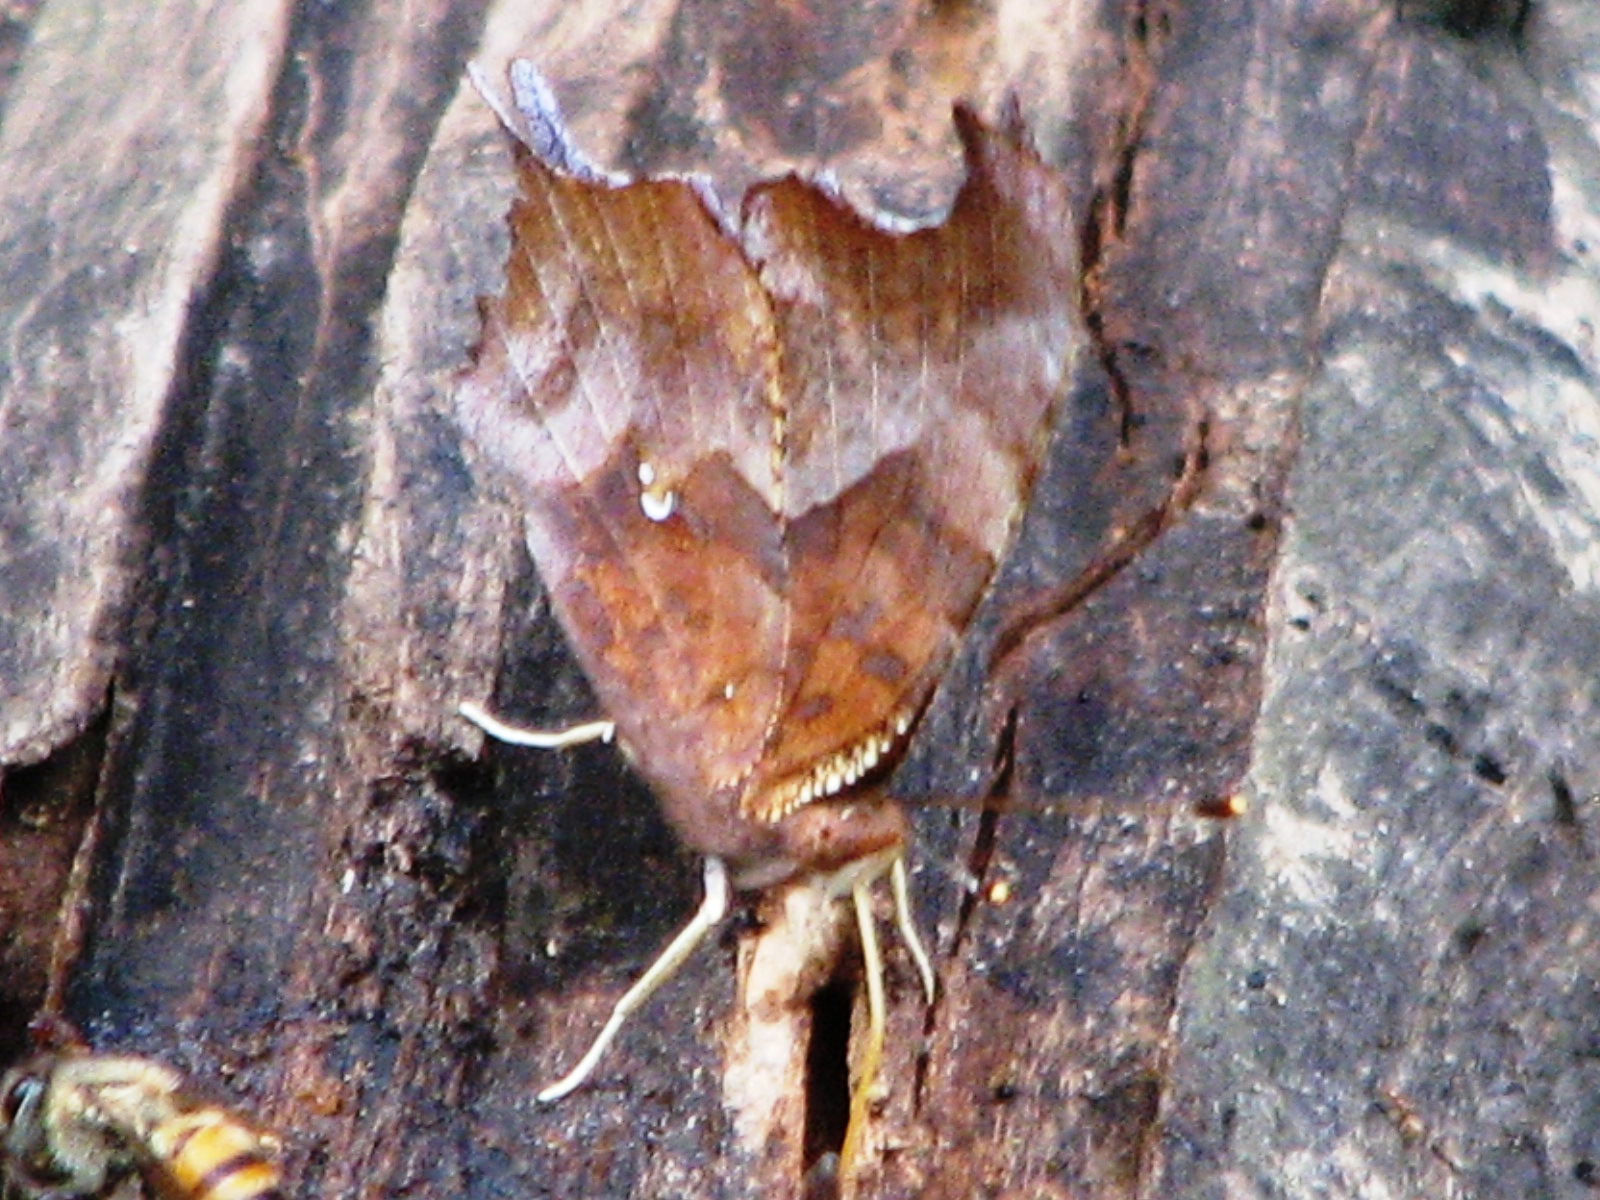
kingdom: Animalia
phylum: Arthropoda
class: Insecta
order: Lepidoptera
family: Nymphalidae
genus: Polygonia
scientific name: Polygonia interrogationis
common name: Question mark
